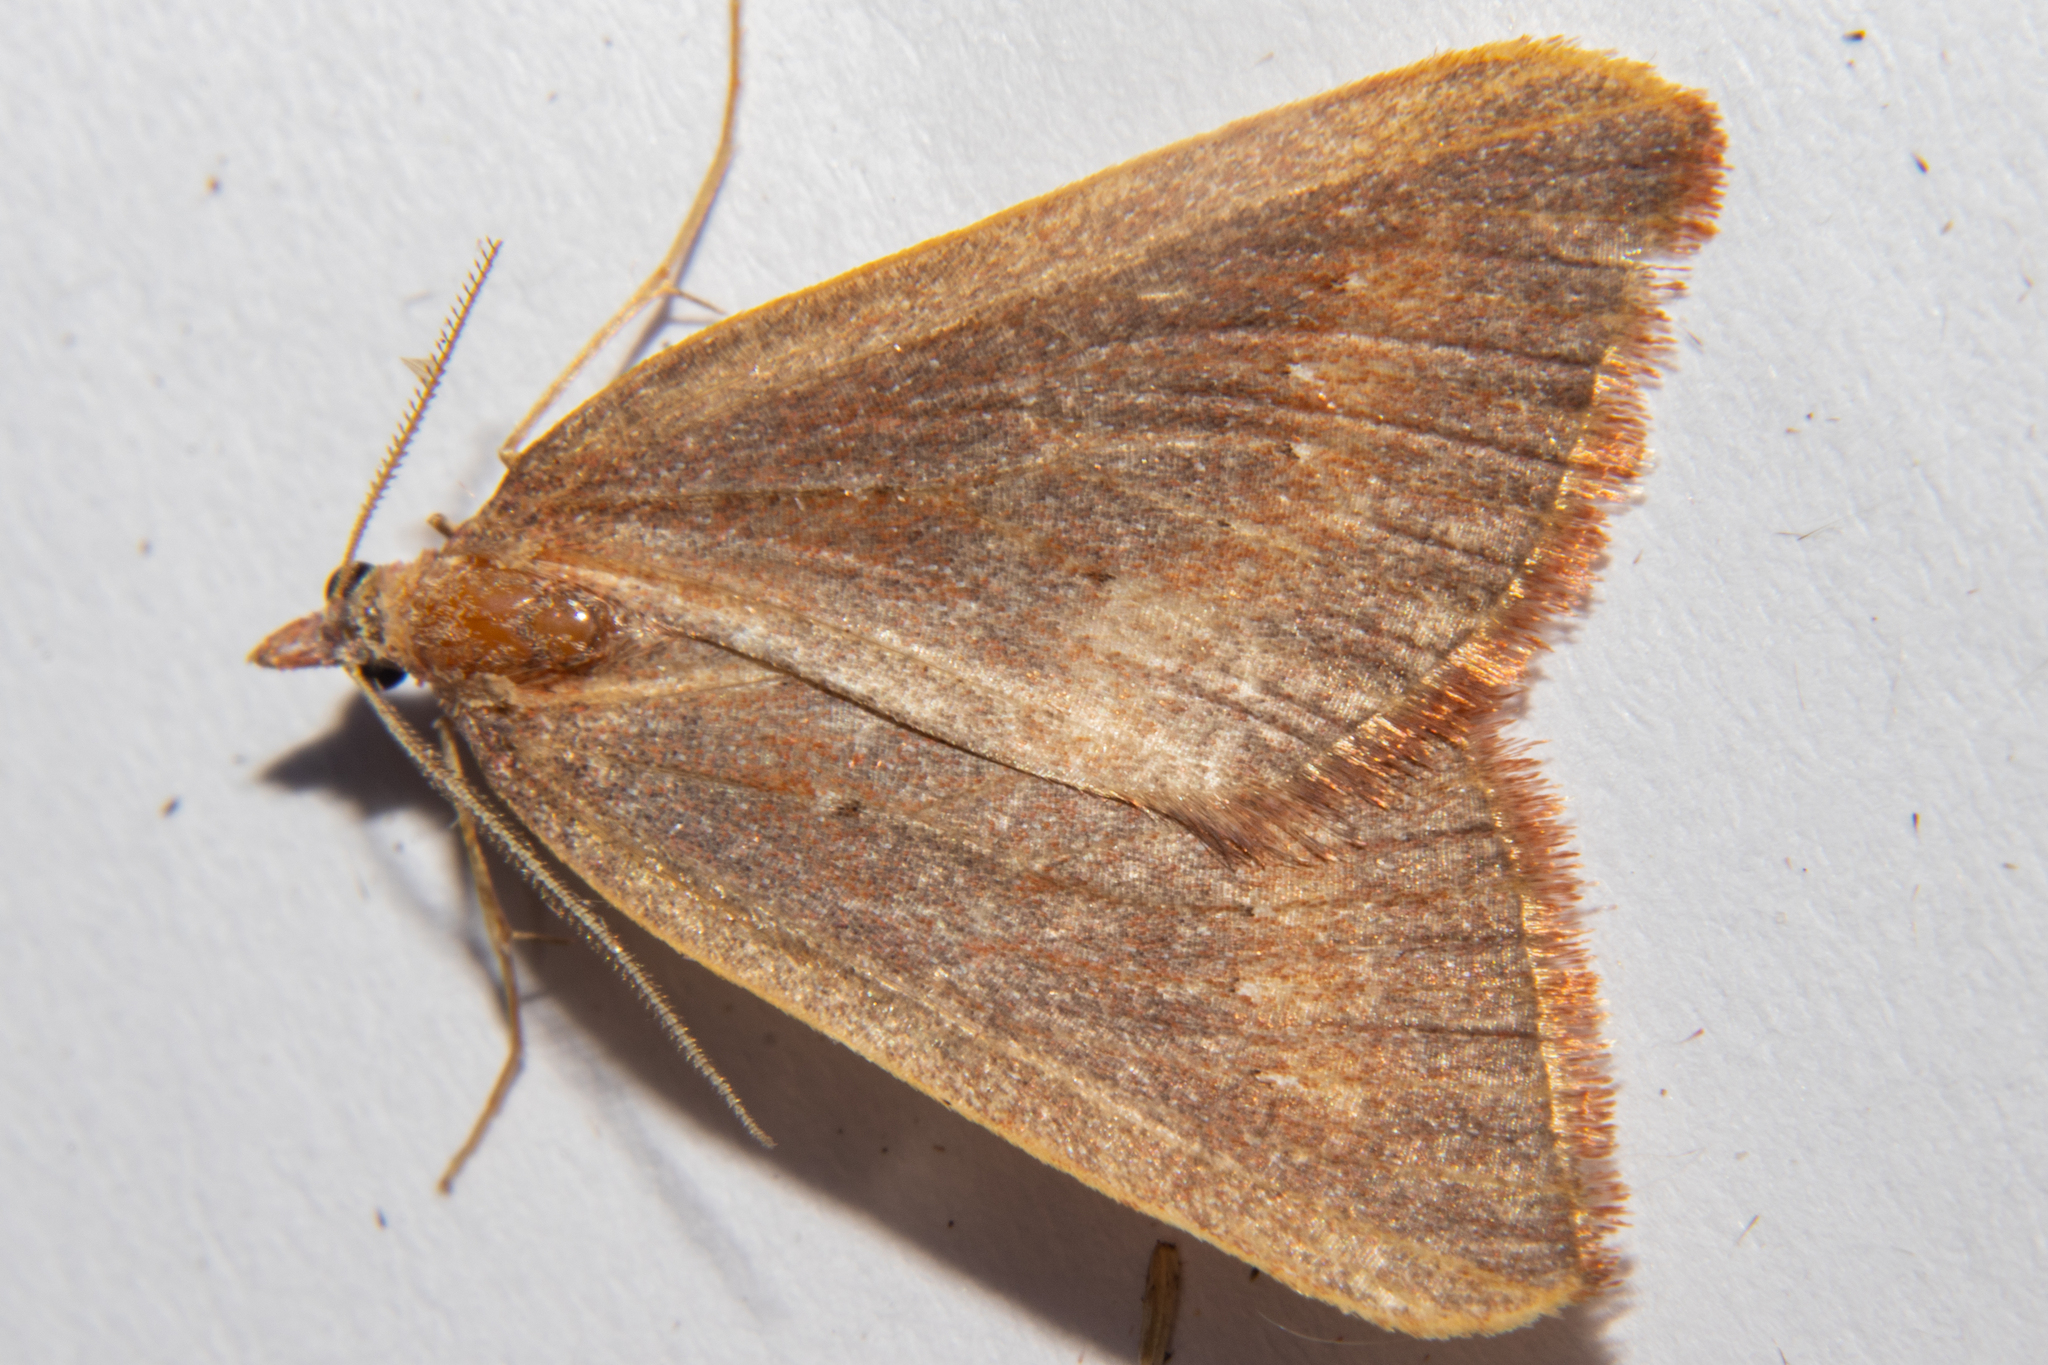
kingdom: Animalia
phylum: Arthropoda
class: Insecta
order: Lepidoptera
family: Geometridae
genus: Xanthorhoe
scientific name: Xanthorhoe occulta
